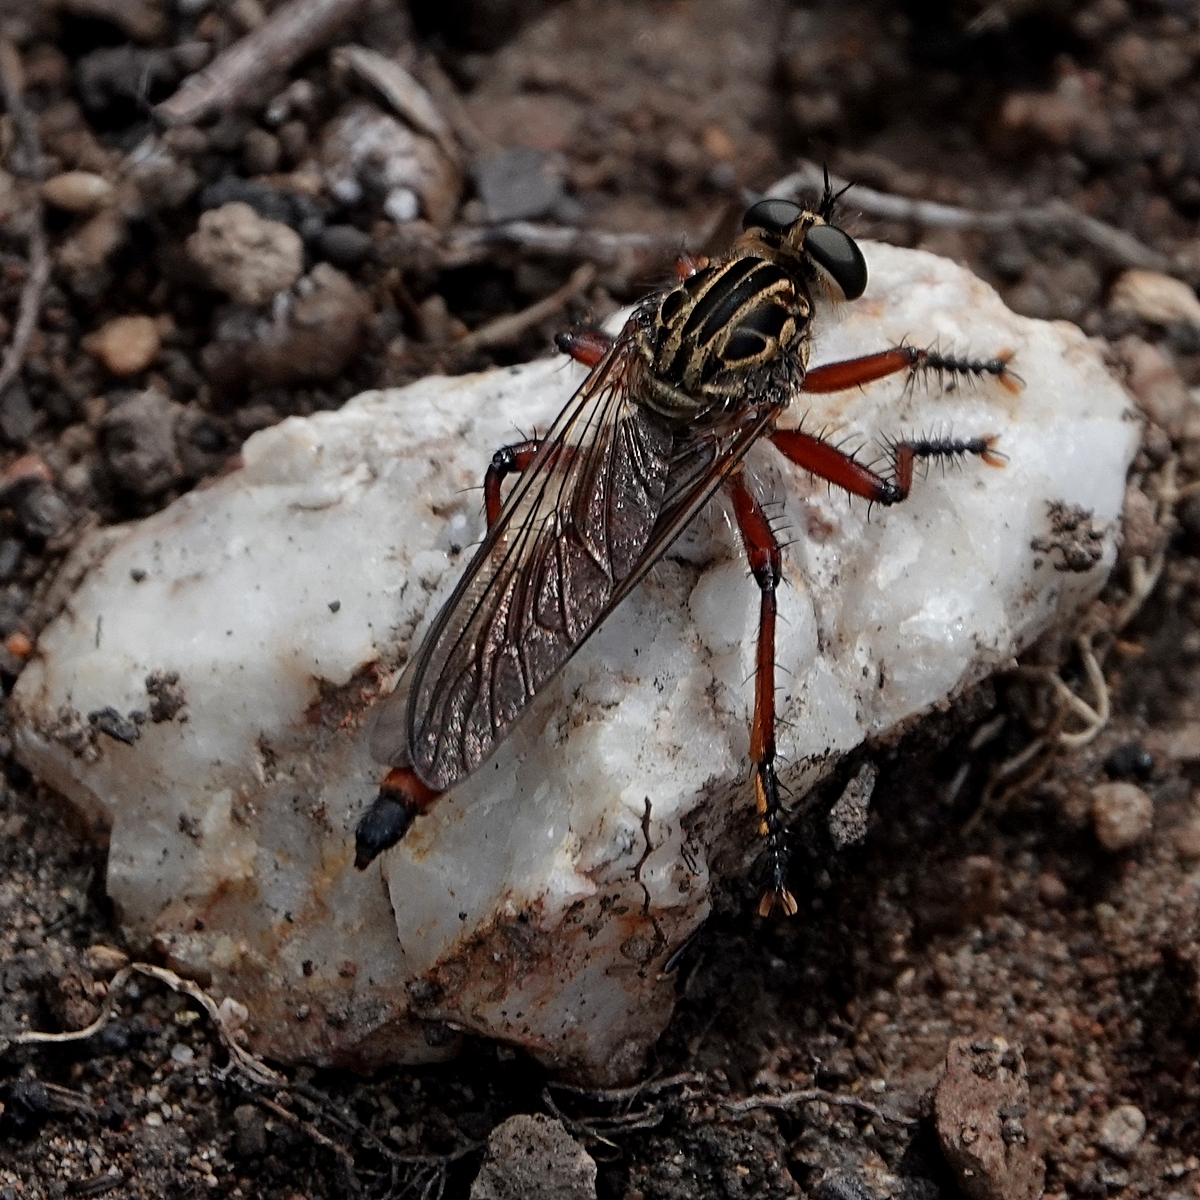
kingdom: Animalia
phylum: Arthropoda
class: Insecta
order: Diptera
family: Asilidae
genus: Zosteria
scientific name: Zosteria sydneensis
